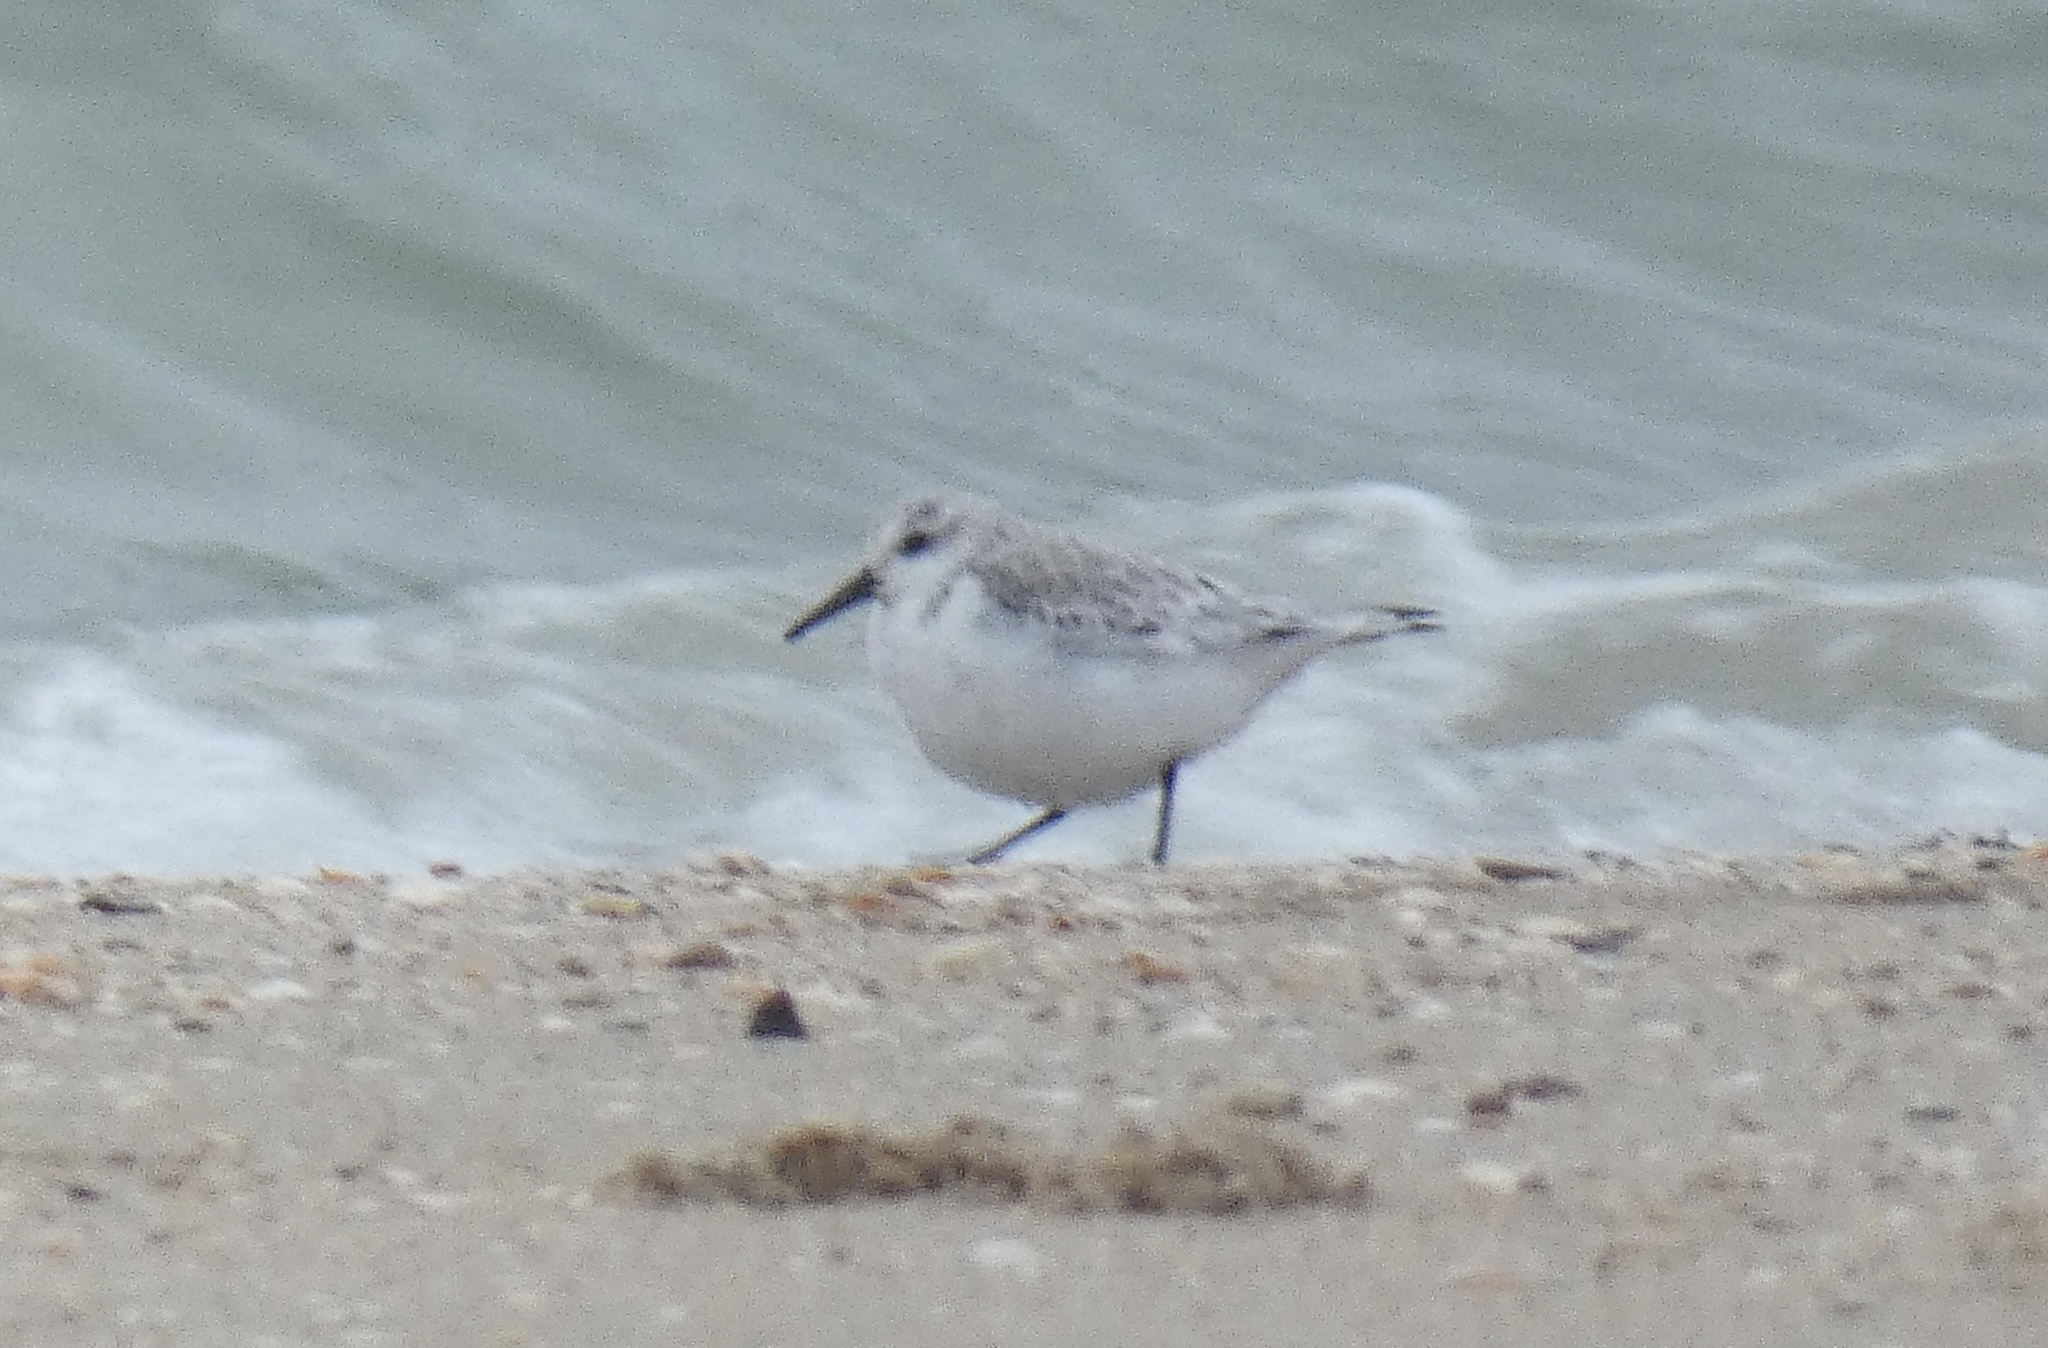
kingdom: Animalia
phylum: Chordata
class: Aves
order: Charadriiformes
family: Scolopacidae
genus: Calidris
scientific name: Calidris alba
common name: Sanderling
